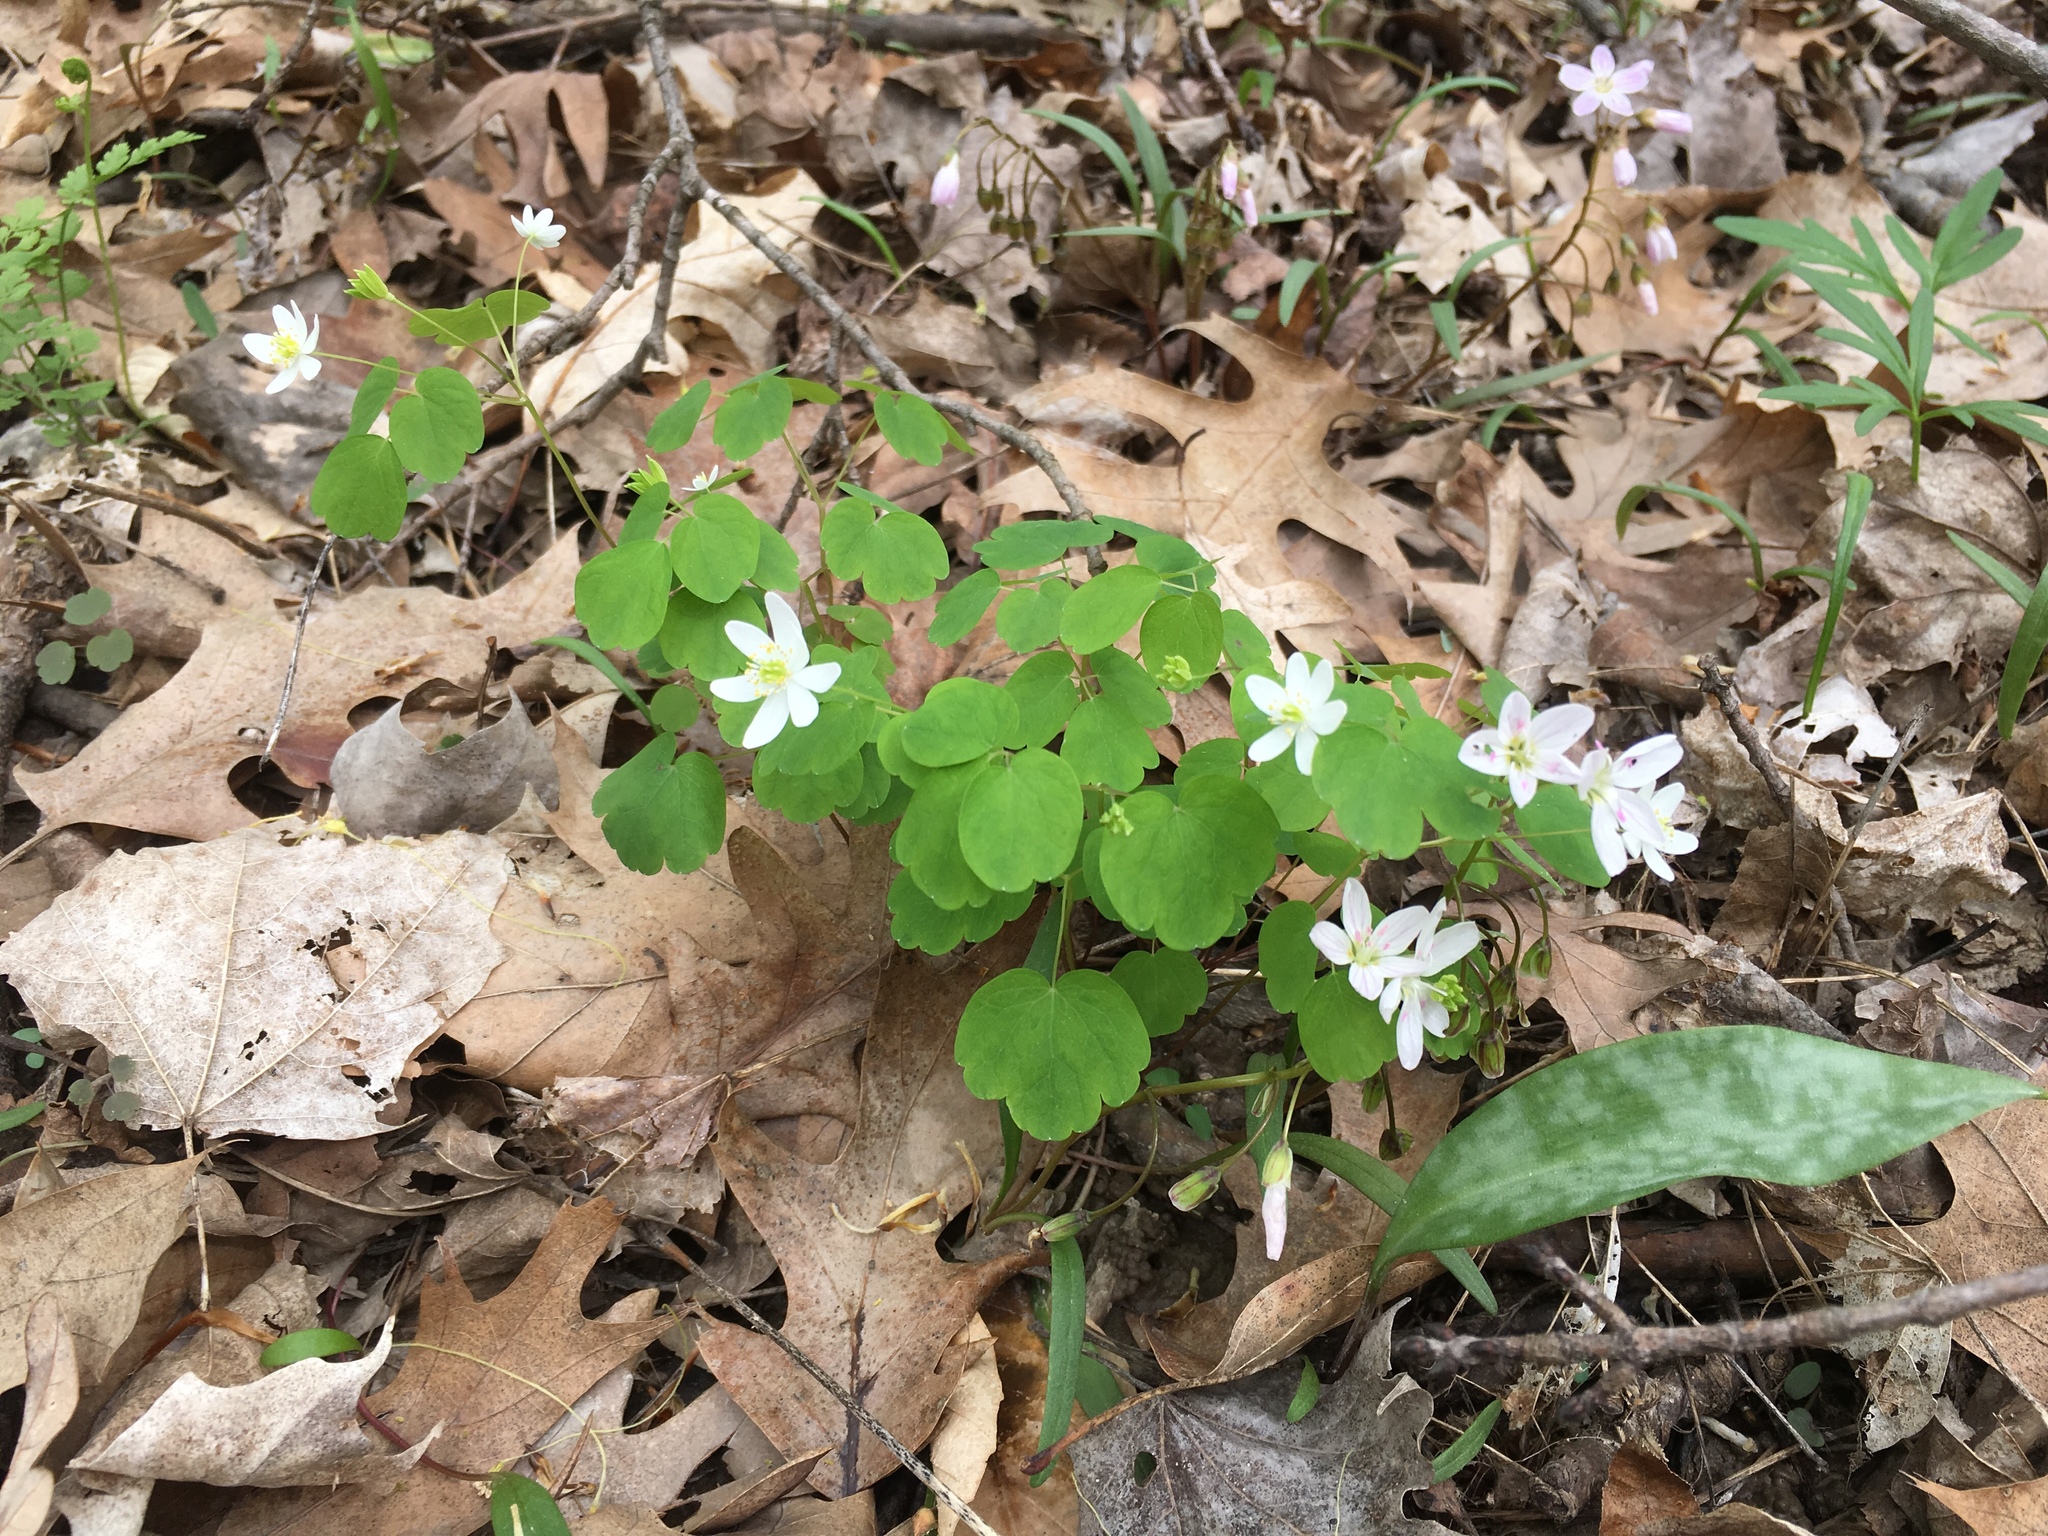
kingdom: Plantae
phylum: Tracheophyta
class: Magnoliopsida
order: Ranunculales
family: Ranunculaceae
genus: Thalictrum
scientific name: Thalictrum thalictroides
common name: Rue-anemone
